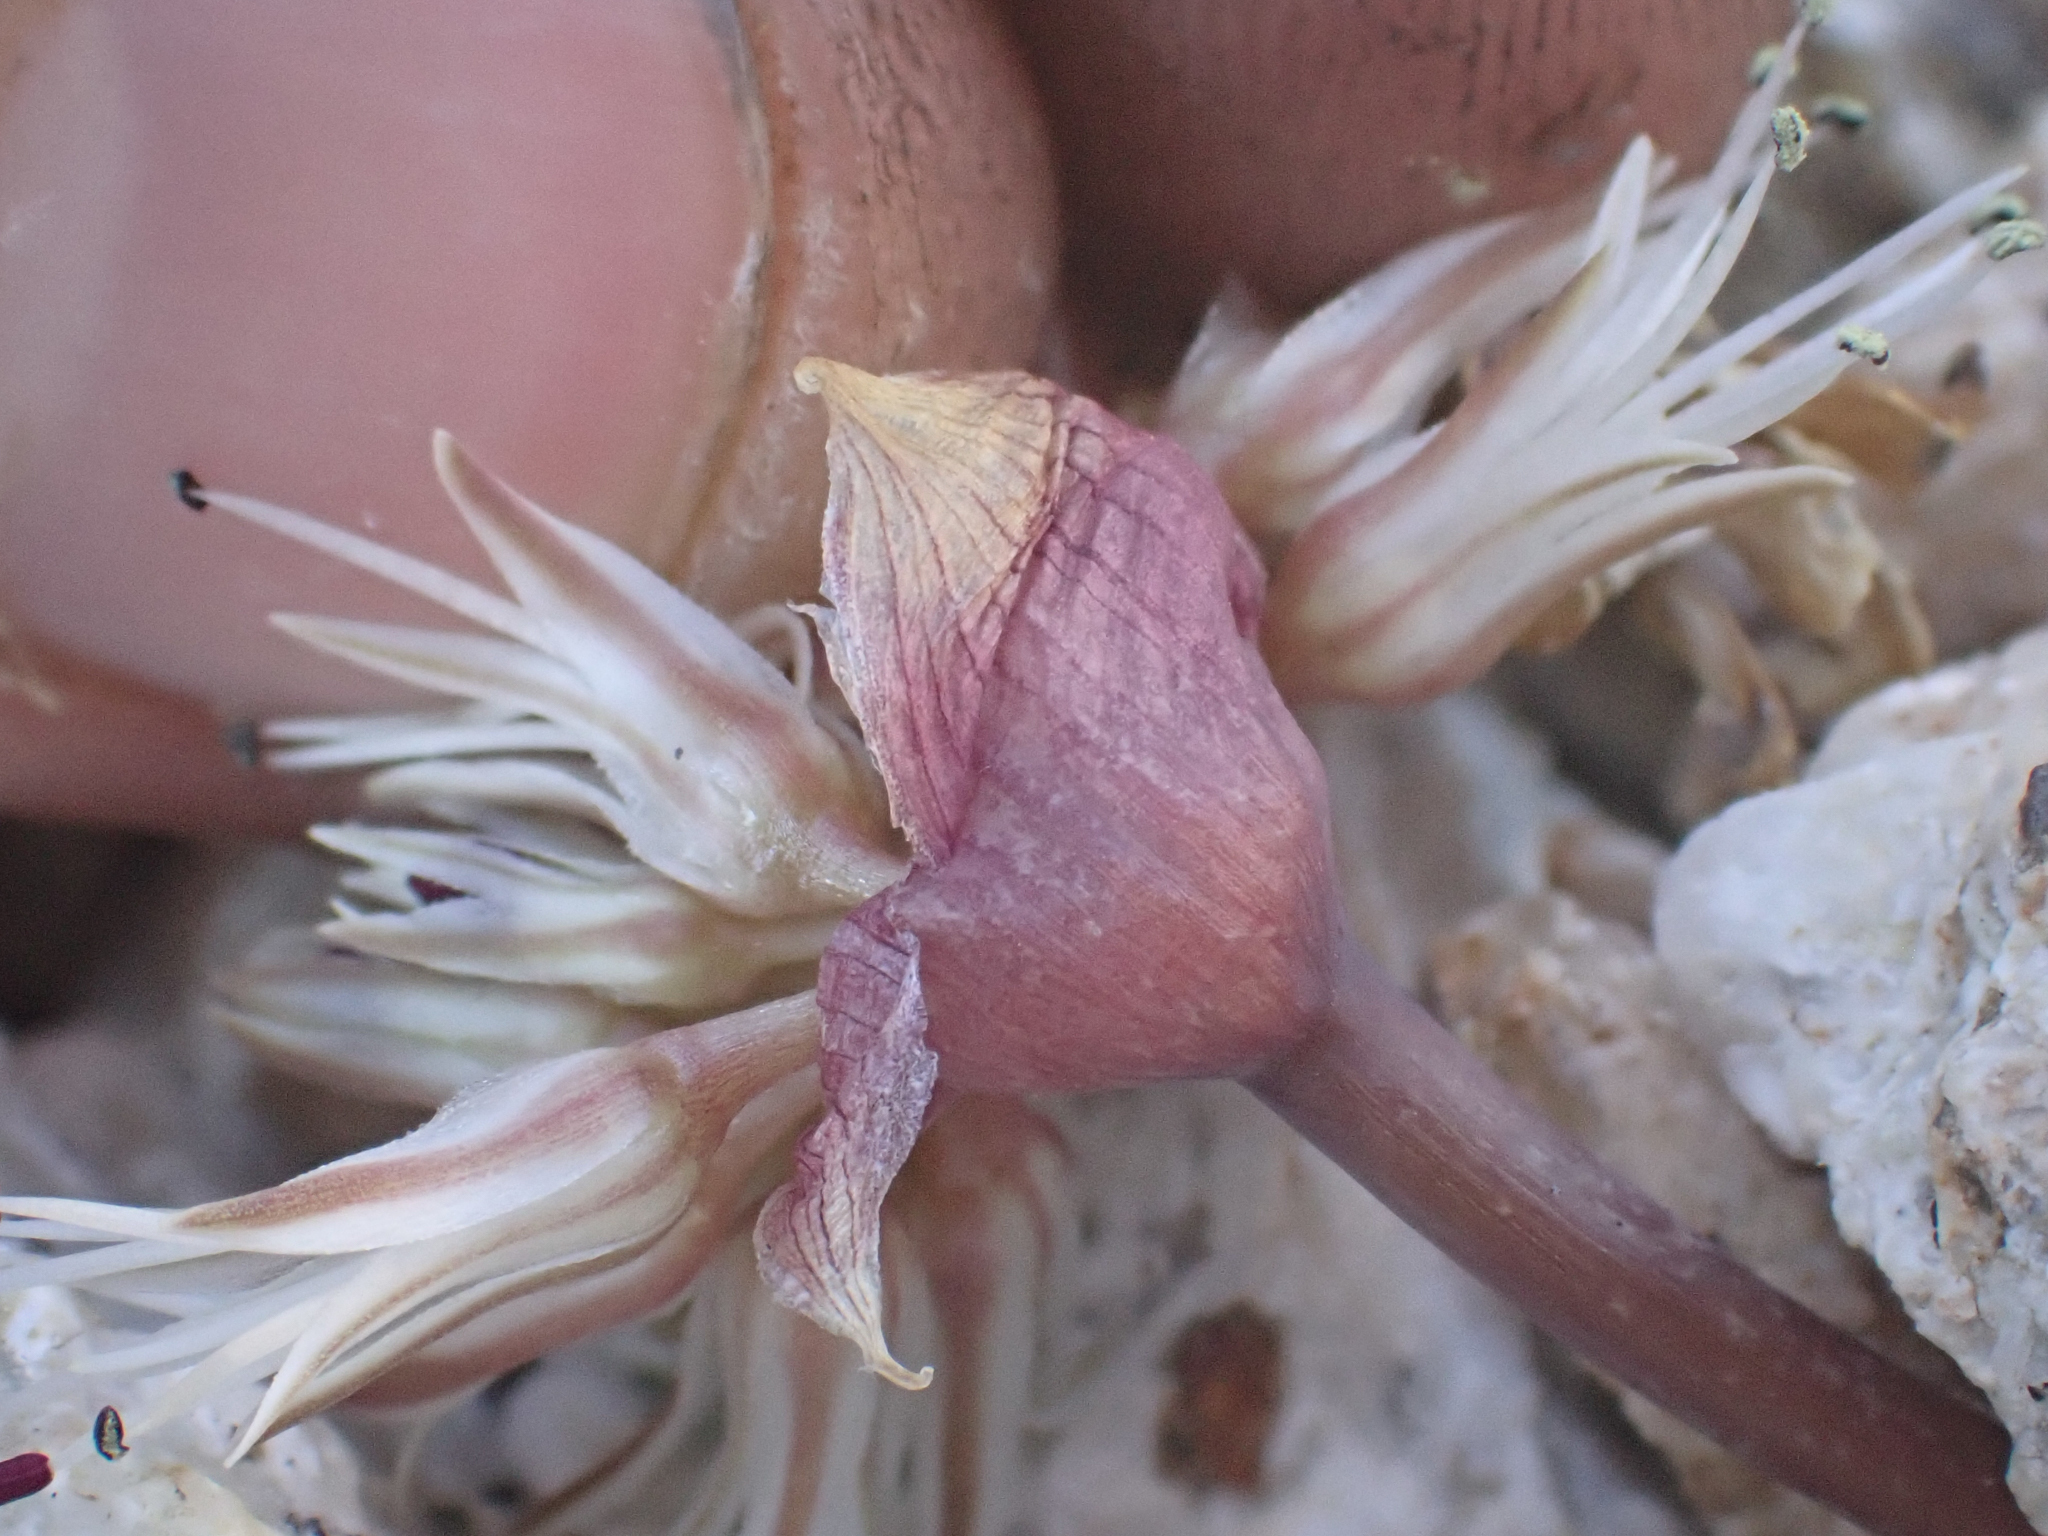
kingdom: Plantae
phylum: Tracheophyta
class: Liliopsida
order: Asparagales
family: Amaryllidaceae
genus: Allium
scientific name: Allium burlewii
